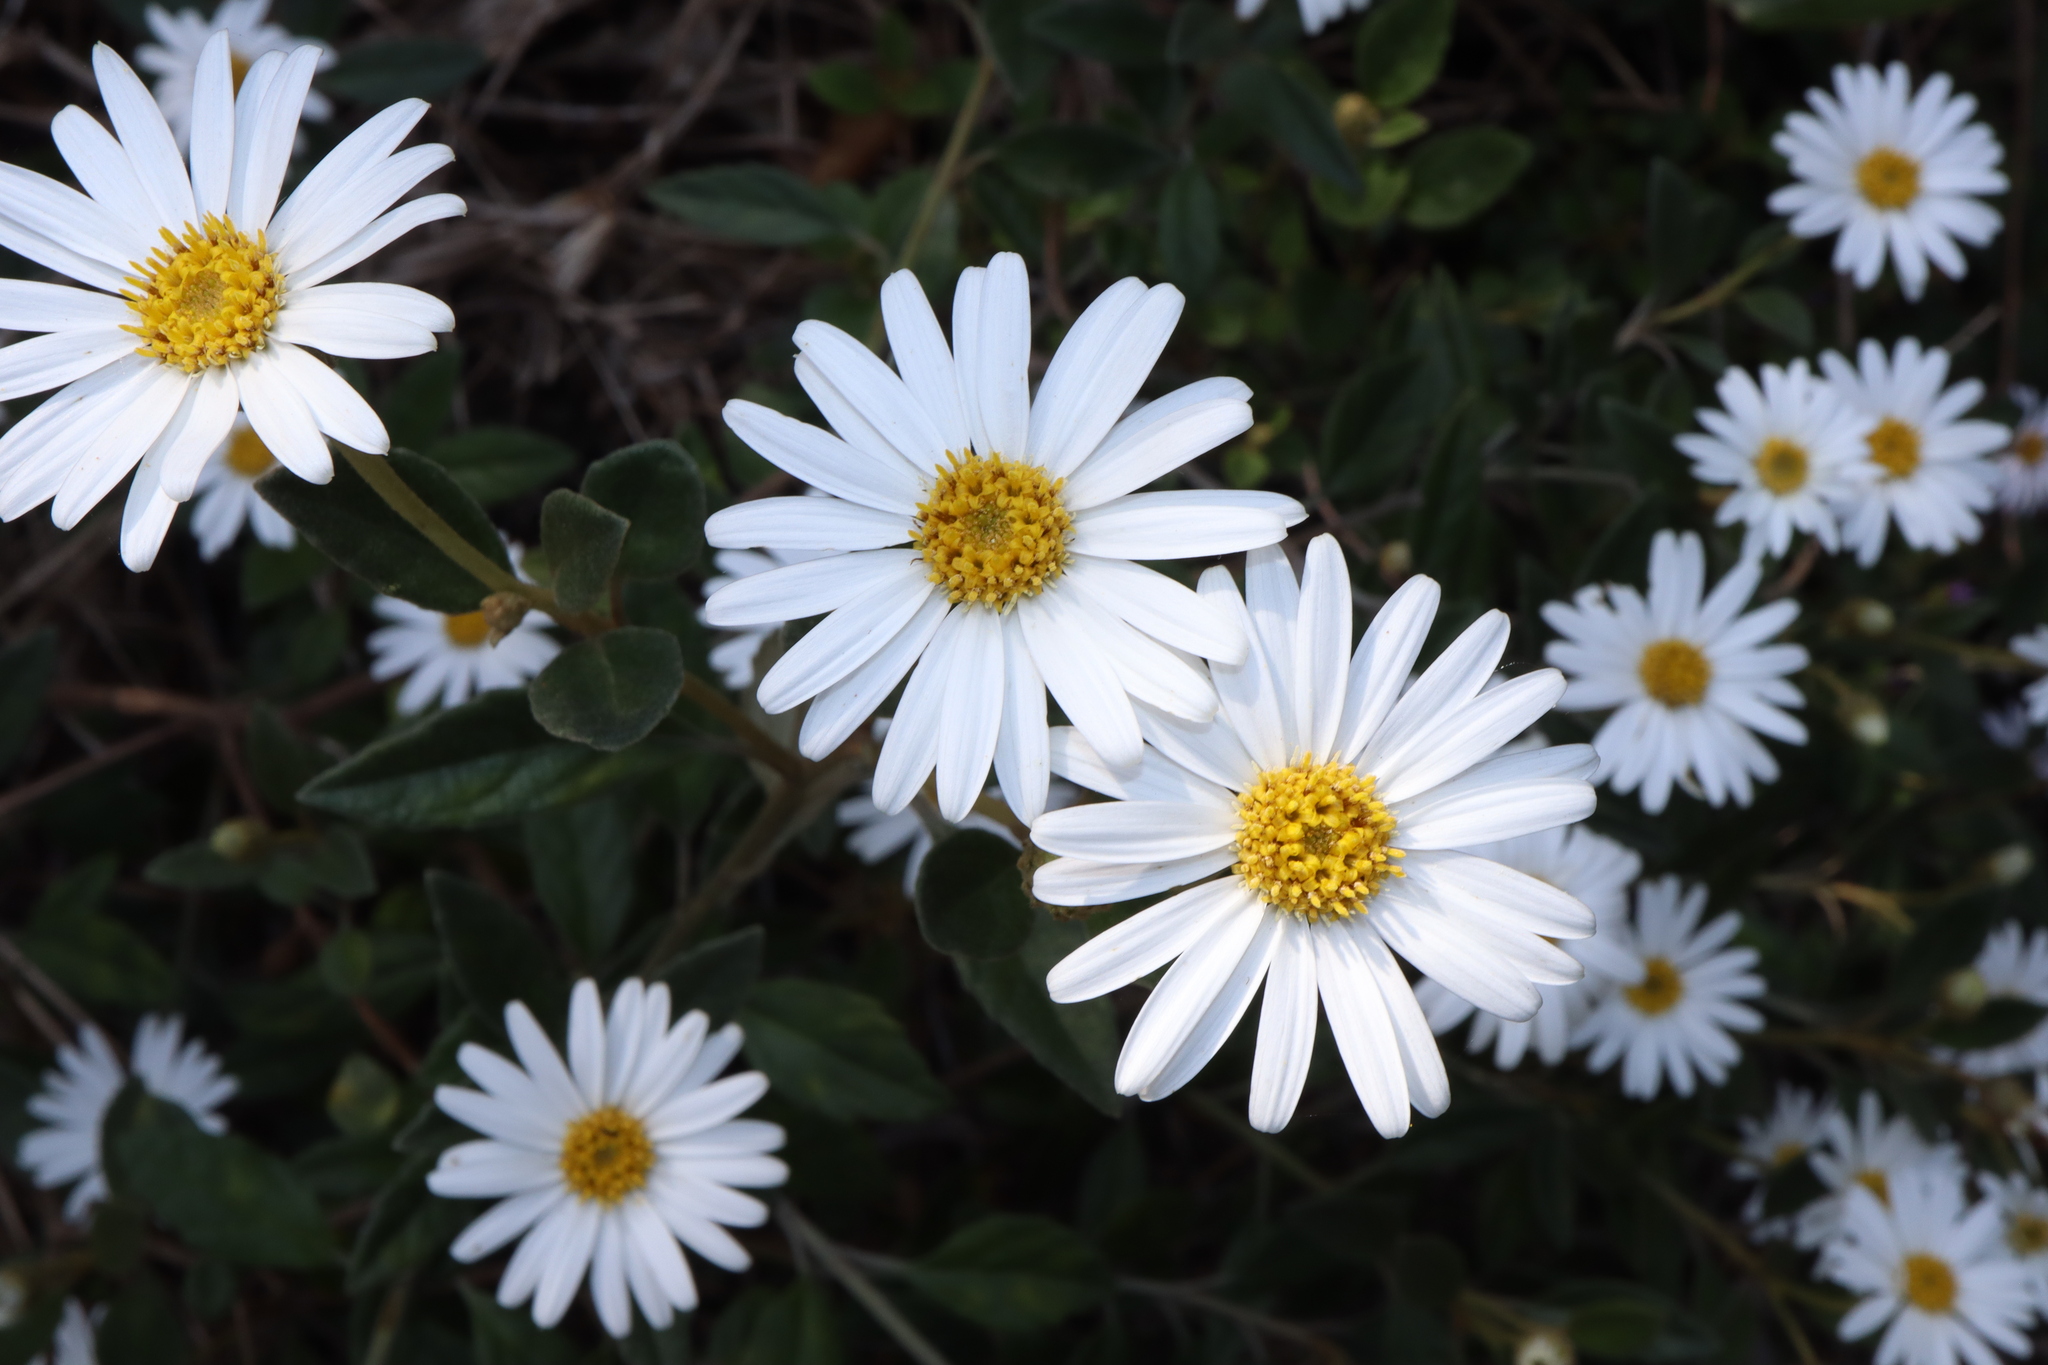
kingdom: Plantae
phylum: Tracheophyta
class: Magnoliopsida
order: Asterales
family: Asteraceae
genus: Olearia
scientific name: Olearia tomentosa
